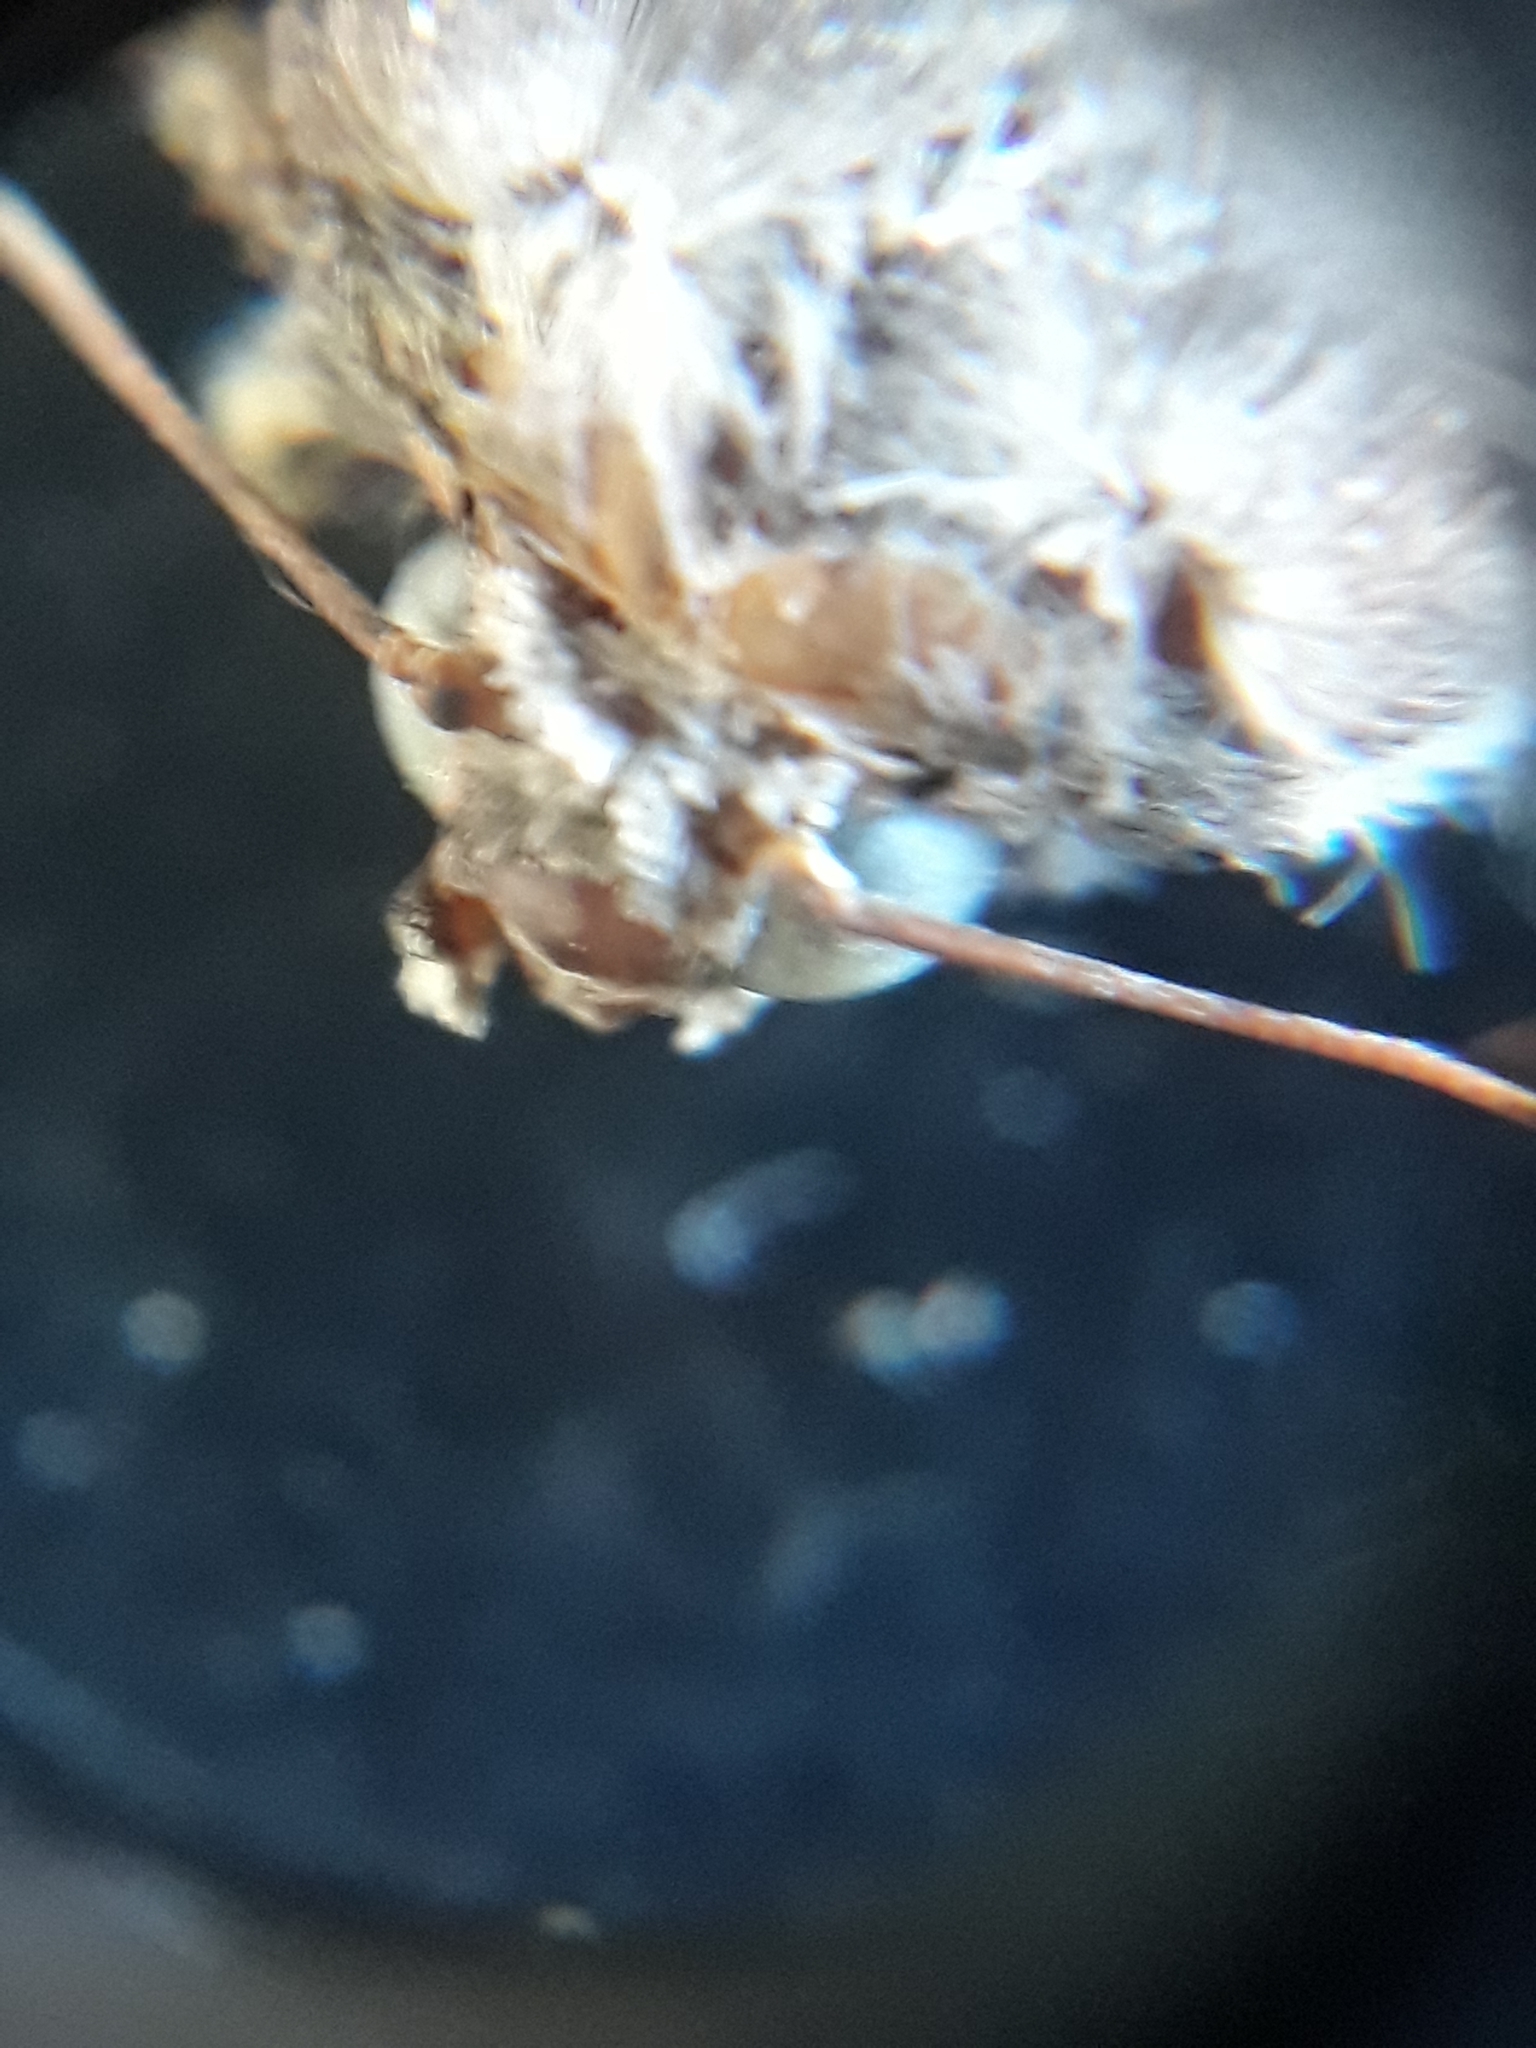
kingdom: Animalia
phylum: Arthropoda
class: Insecta
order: Lepidoptera
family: Noctuidae
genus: Agrotis
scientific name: Agrotis ipsilon
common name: Dark sword-grass
